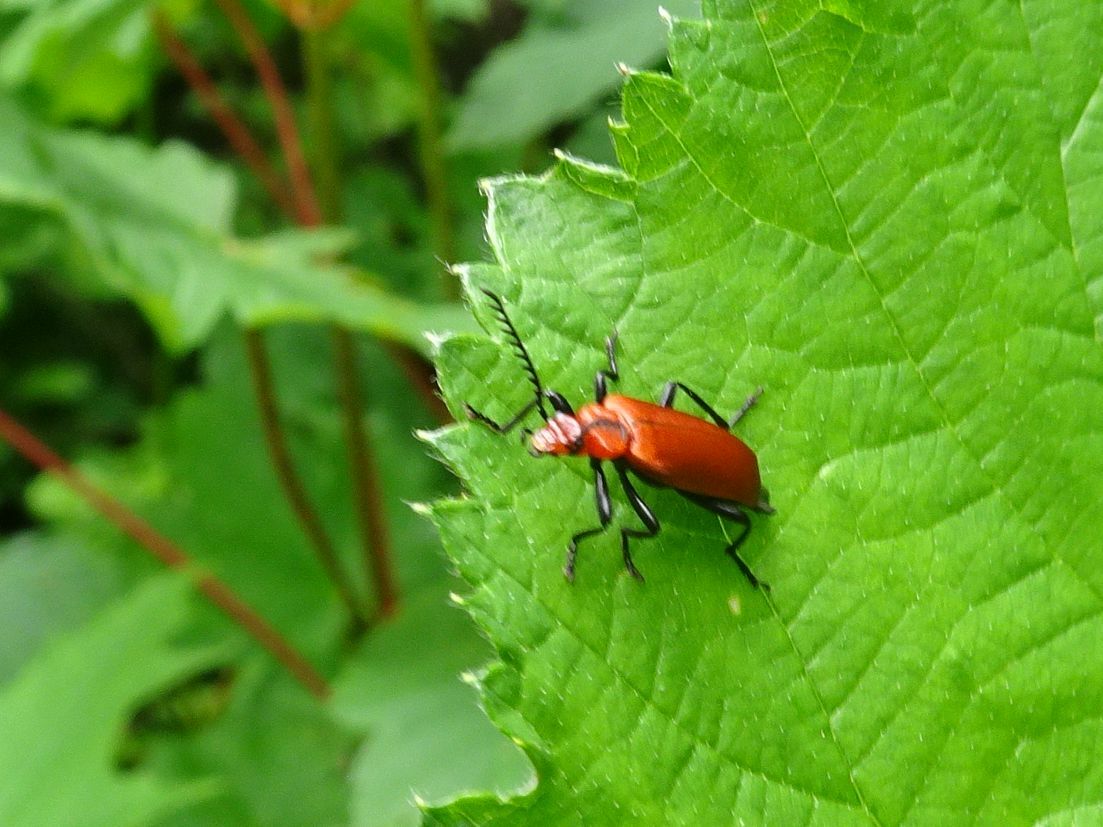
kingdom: Animalia
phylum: Arthropoda
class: Insecta
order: Coleoptera
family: Pyrochroidae
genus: Pyrochroa
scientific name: Pyrochroa serraticornis
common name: Red-headed cardinal beetle
